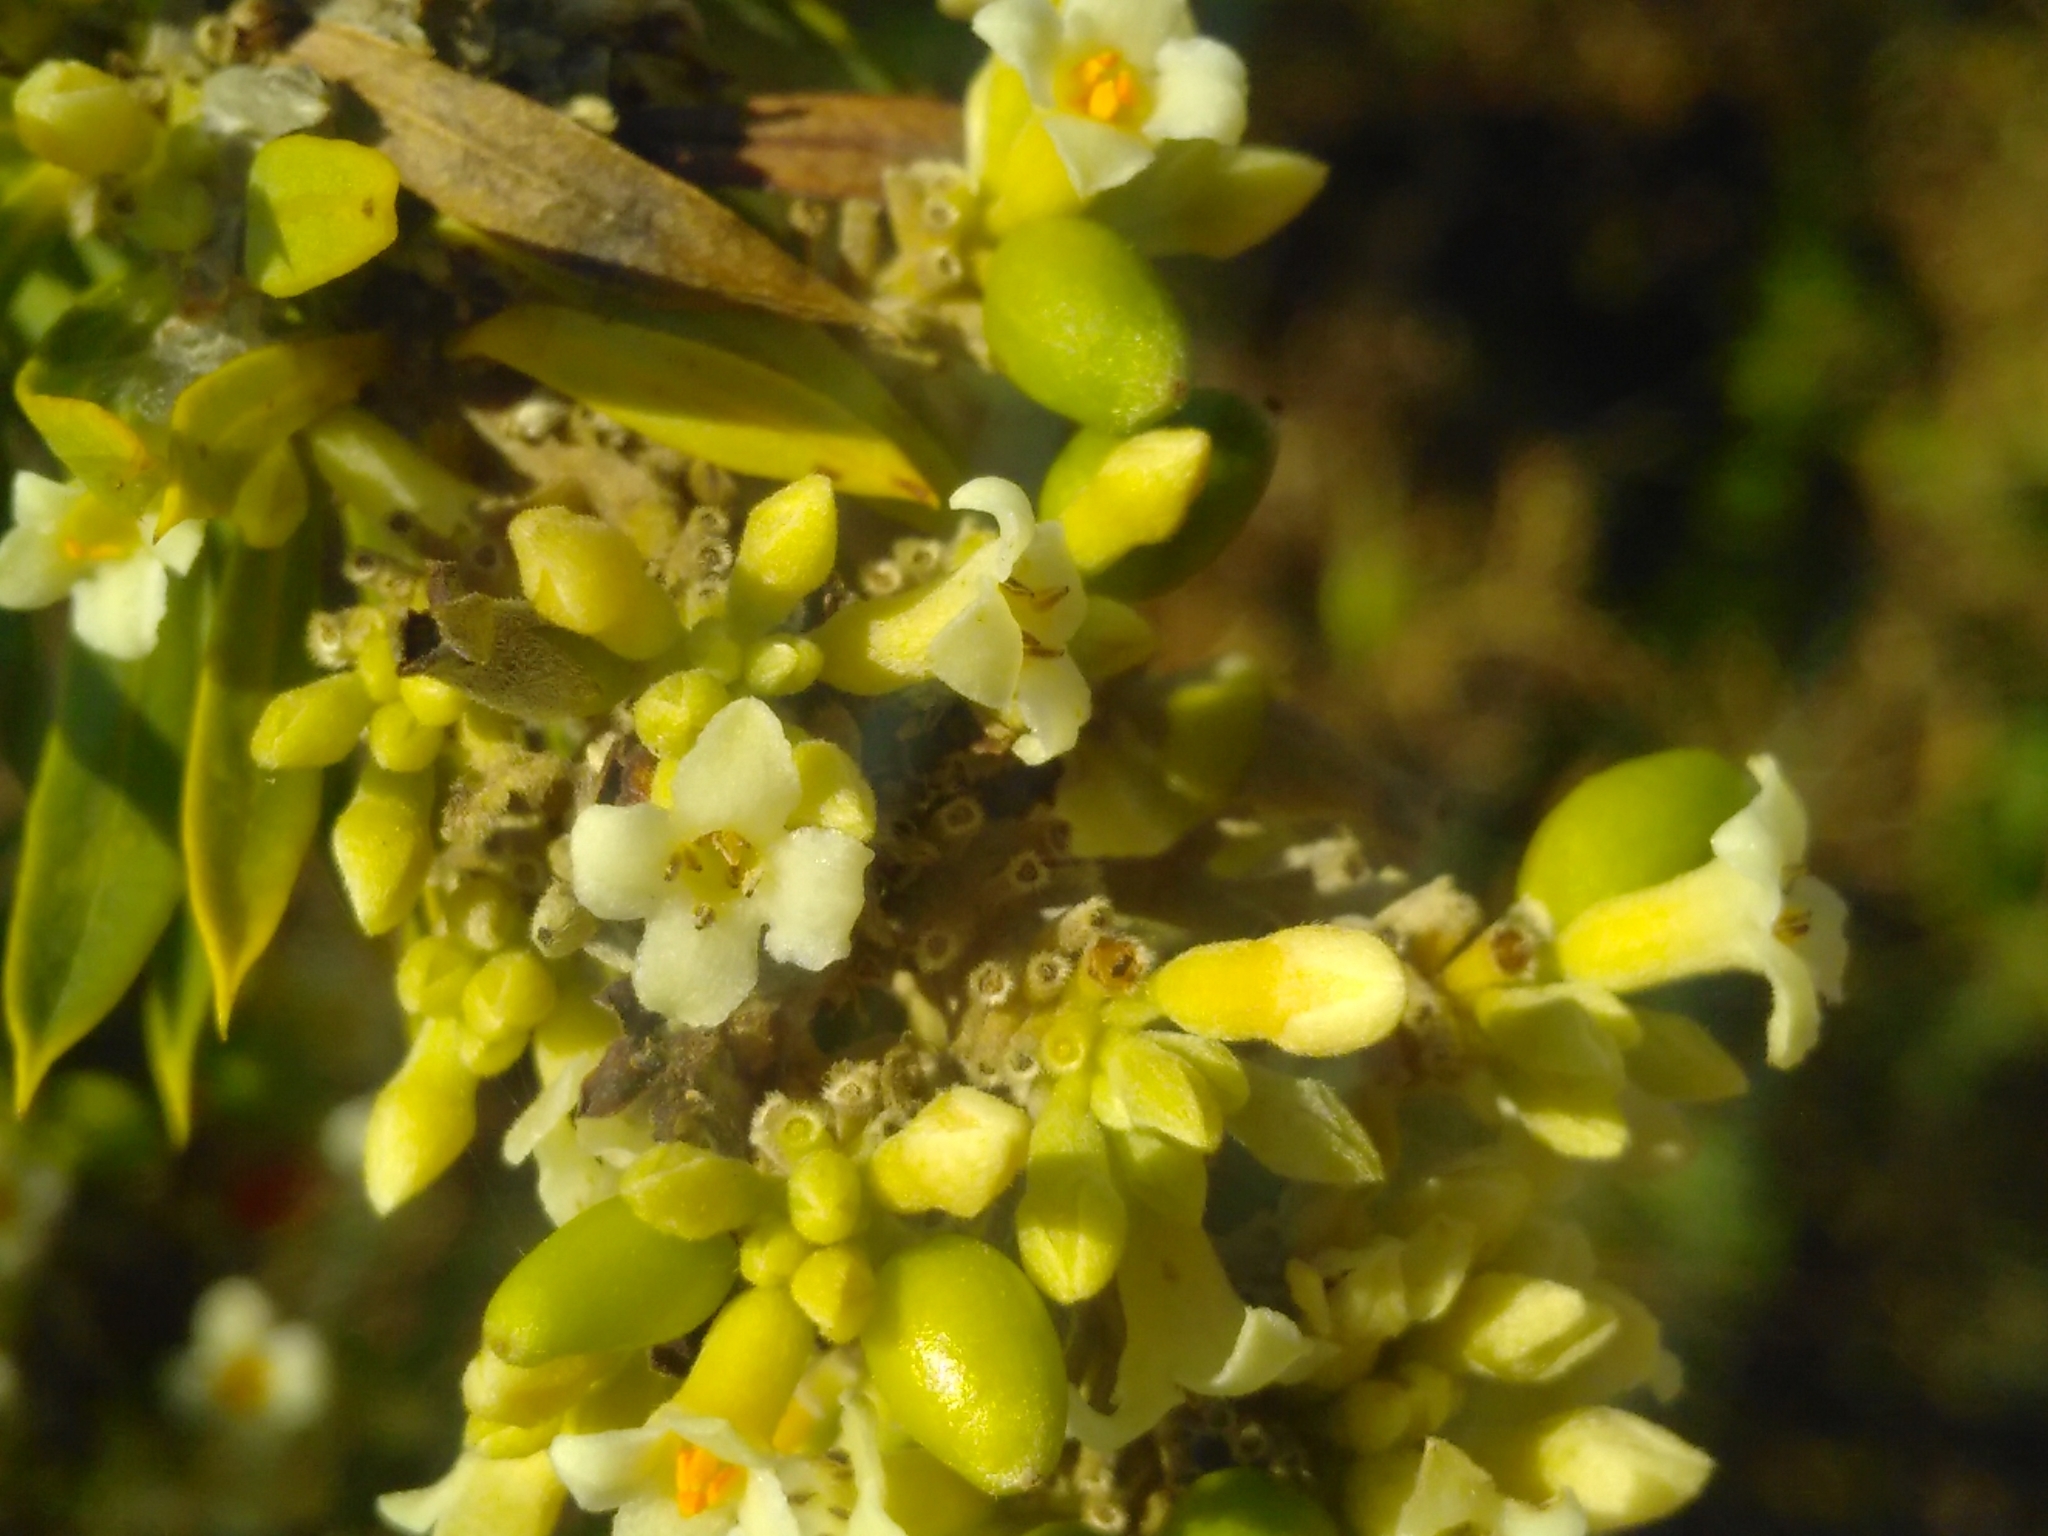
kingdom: Plantae
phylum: Tracheophyta
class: Magnoliopsida
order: Malvales
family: Thymelaeaceae
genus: Daphne
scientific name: Daphne gnidium
